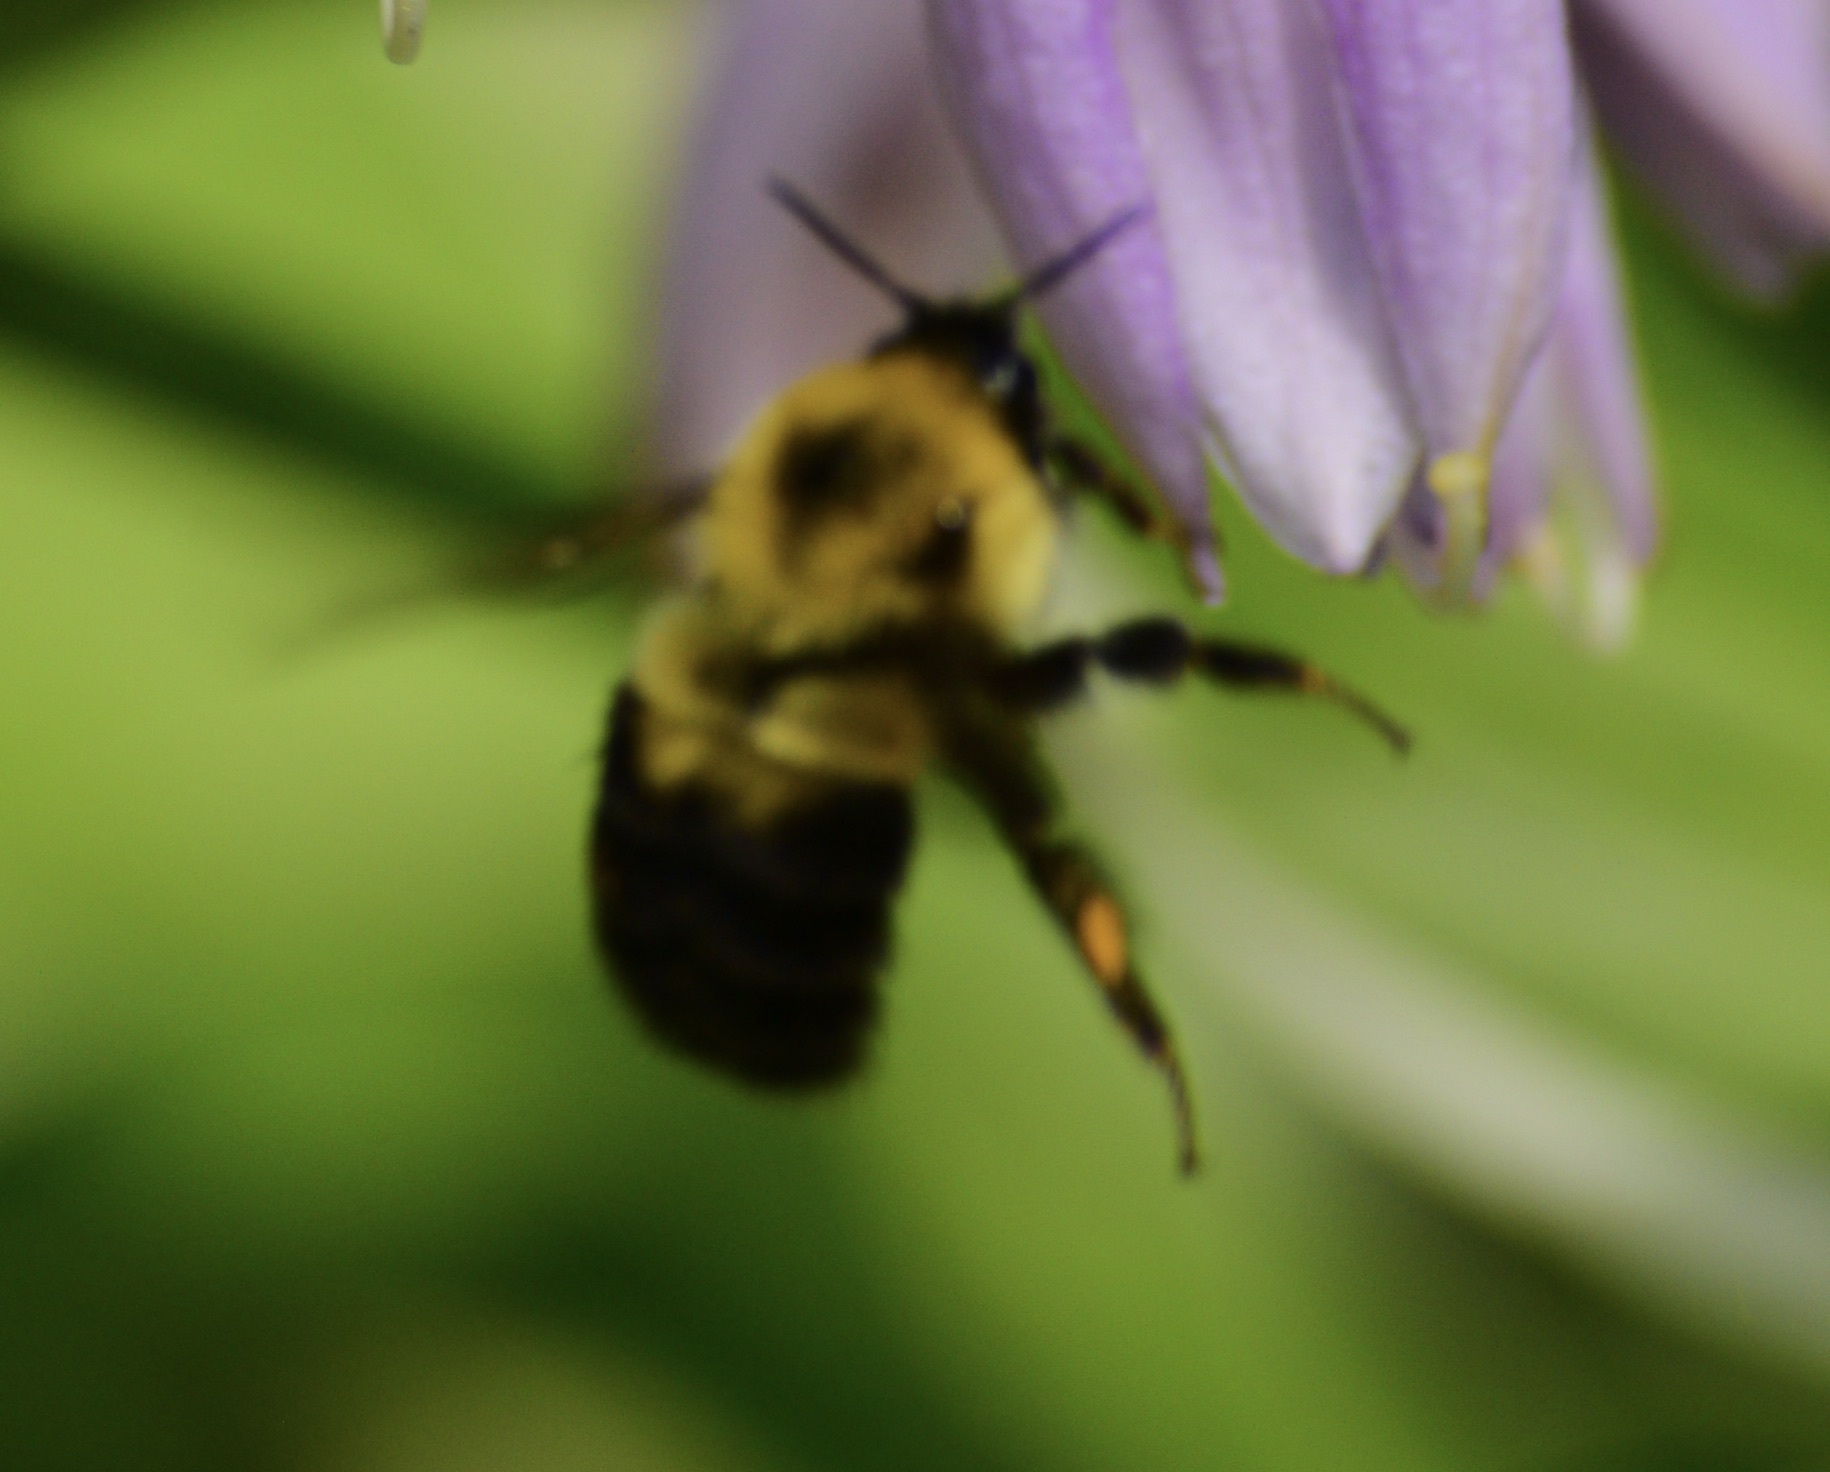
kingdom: Animalia
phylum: Arthropoda
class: Insecta
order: Hymenoptera
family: Apidae
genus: Bombus
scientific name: Bombus bimaculatus
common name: Two-spotted bumble bee
